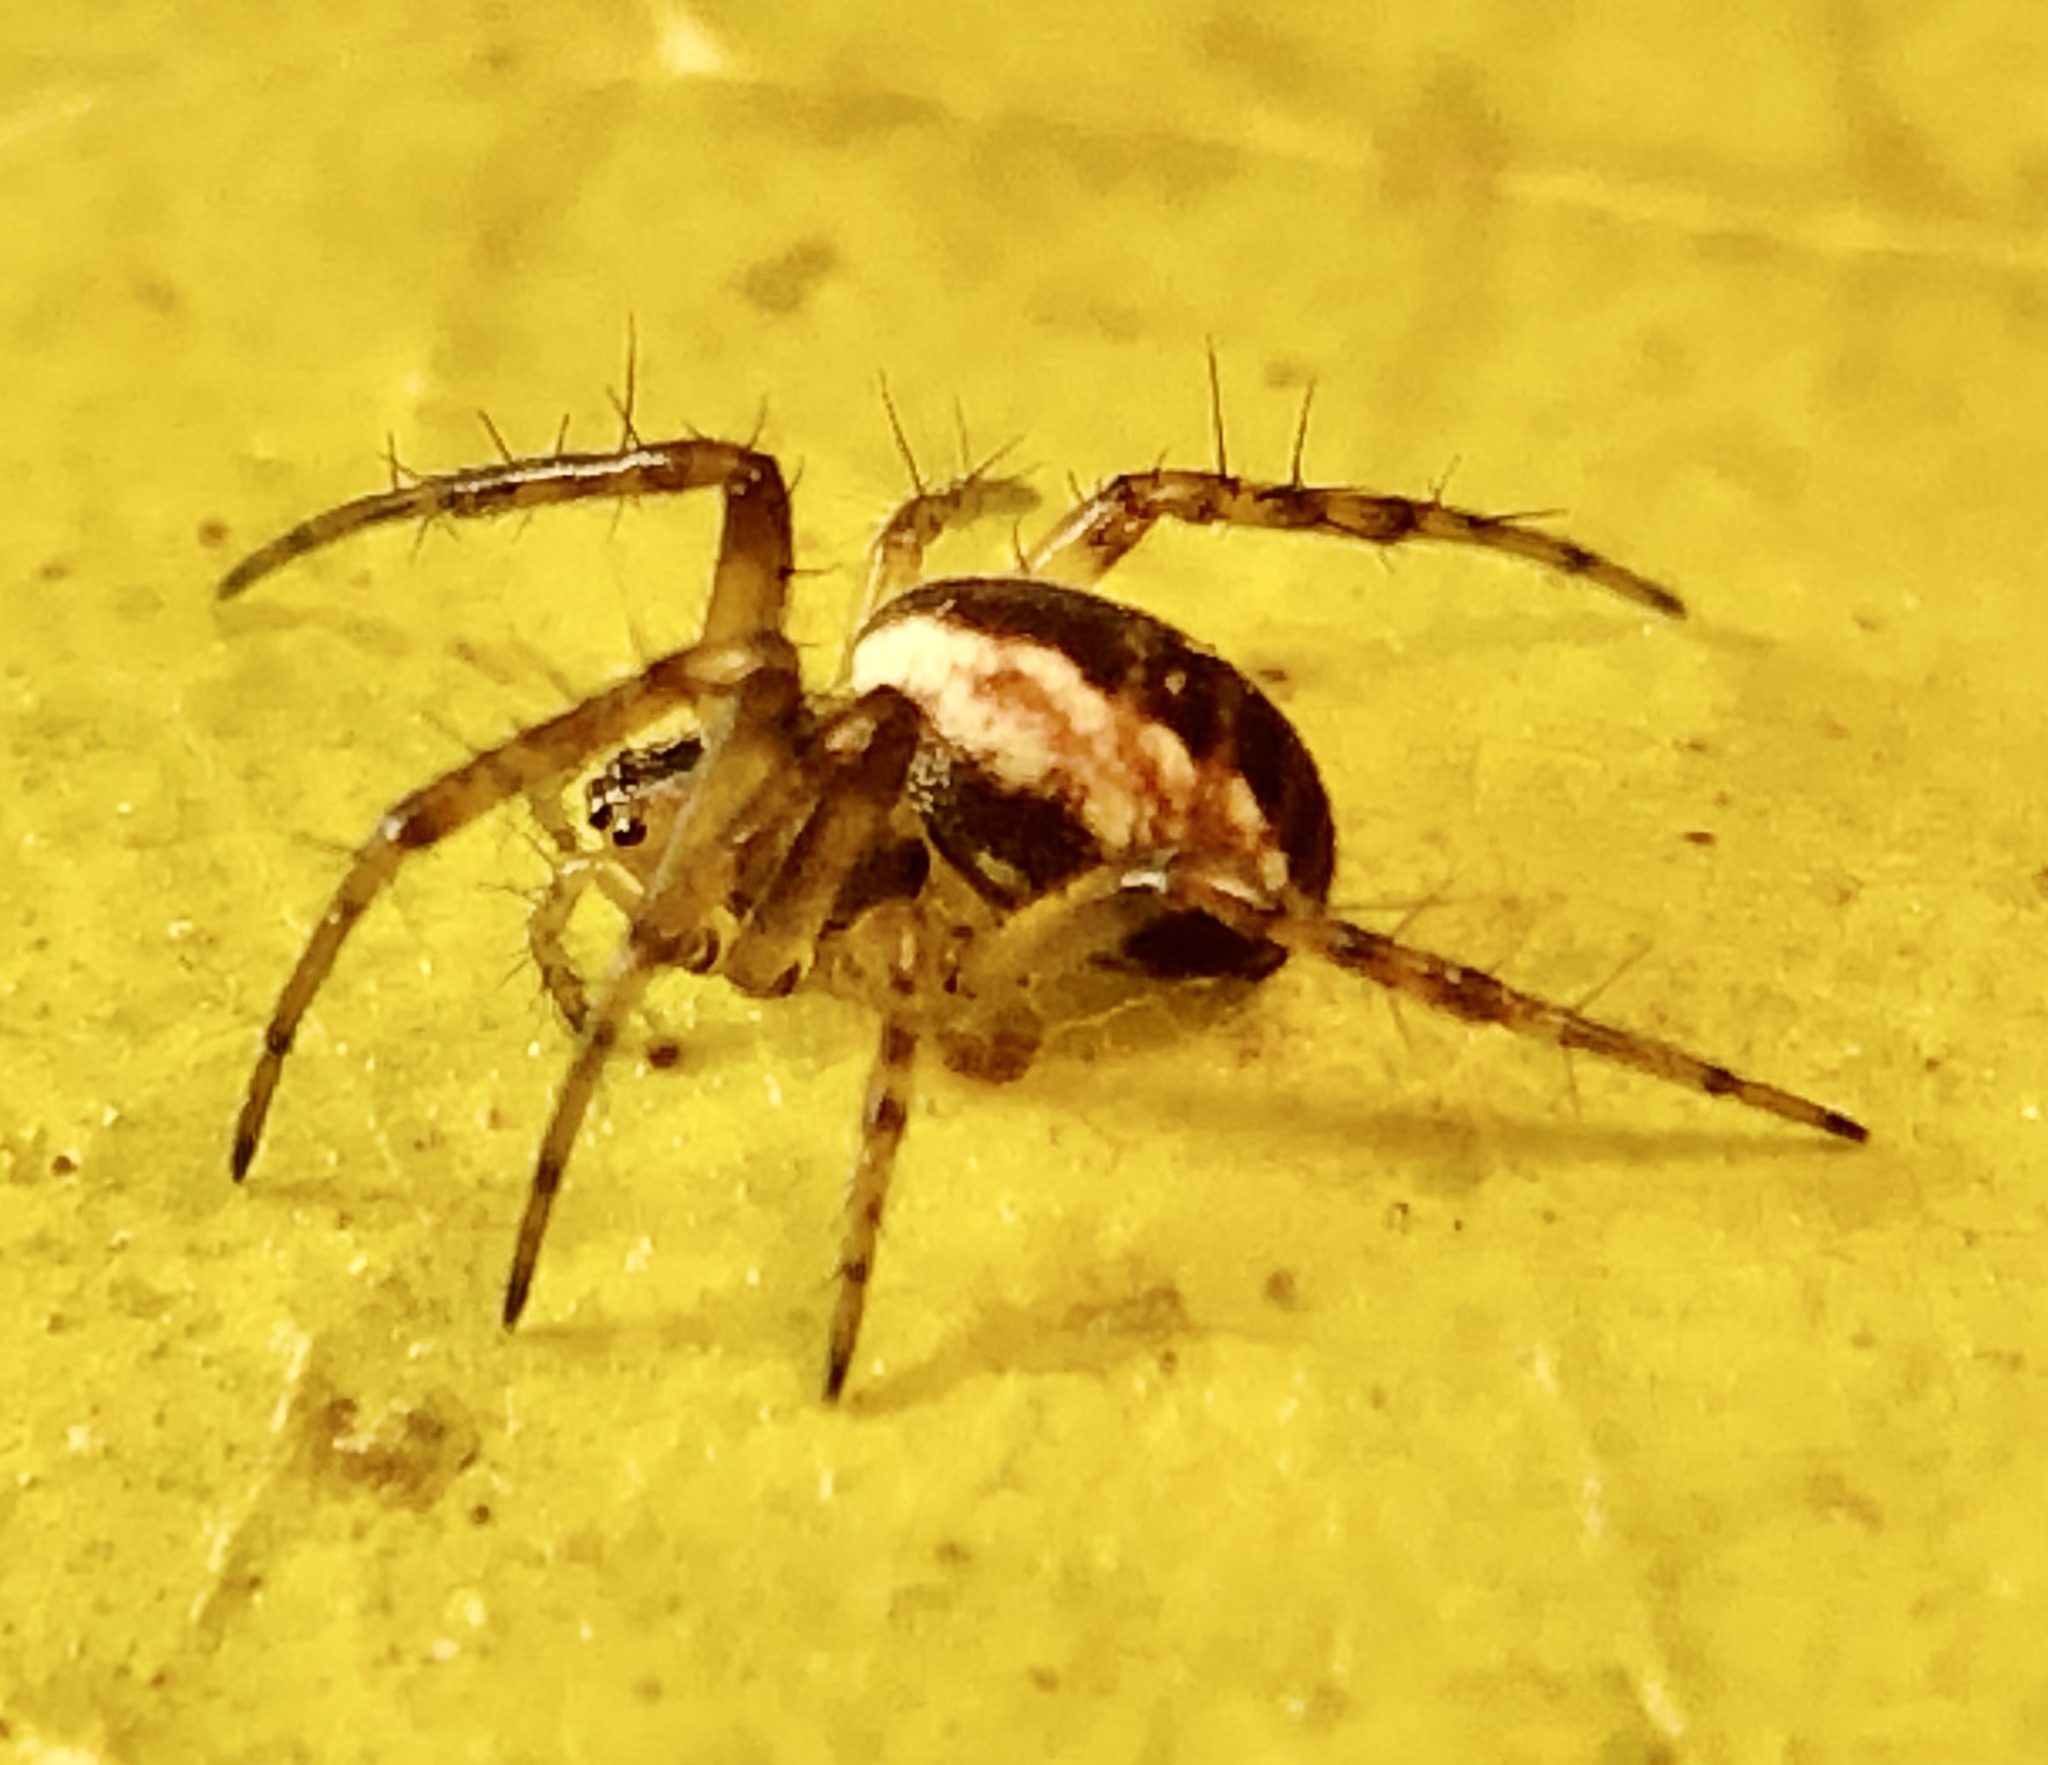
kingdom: Animalia
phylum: Arthropoda
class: Arachnida
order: Araneae
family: Araneidae
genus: Mangora
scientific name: Mangora placida
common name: Tuft-legged orbweaver
